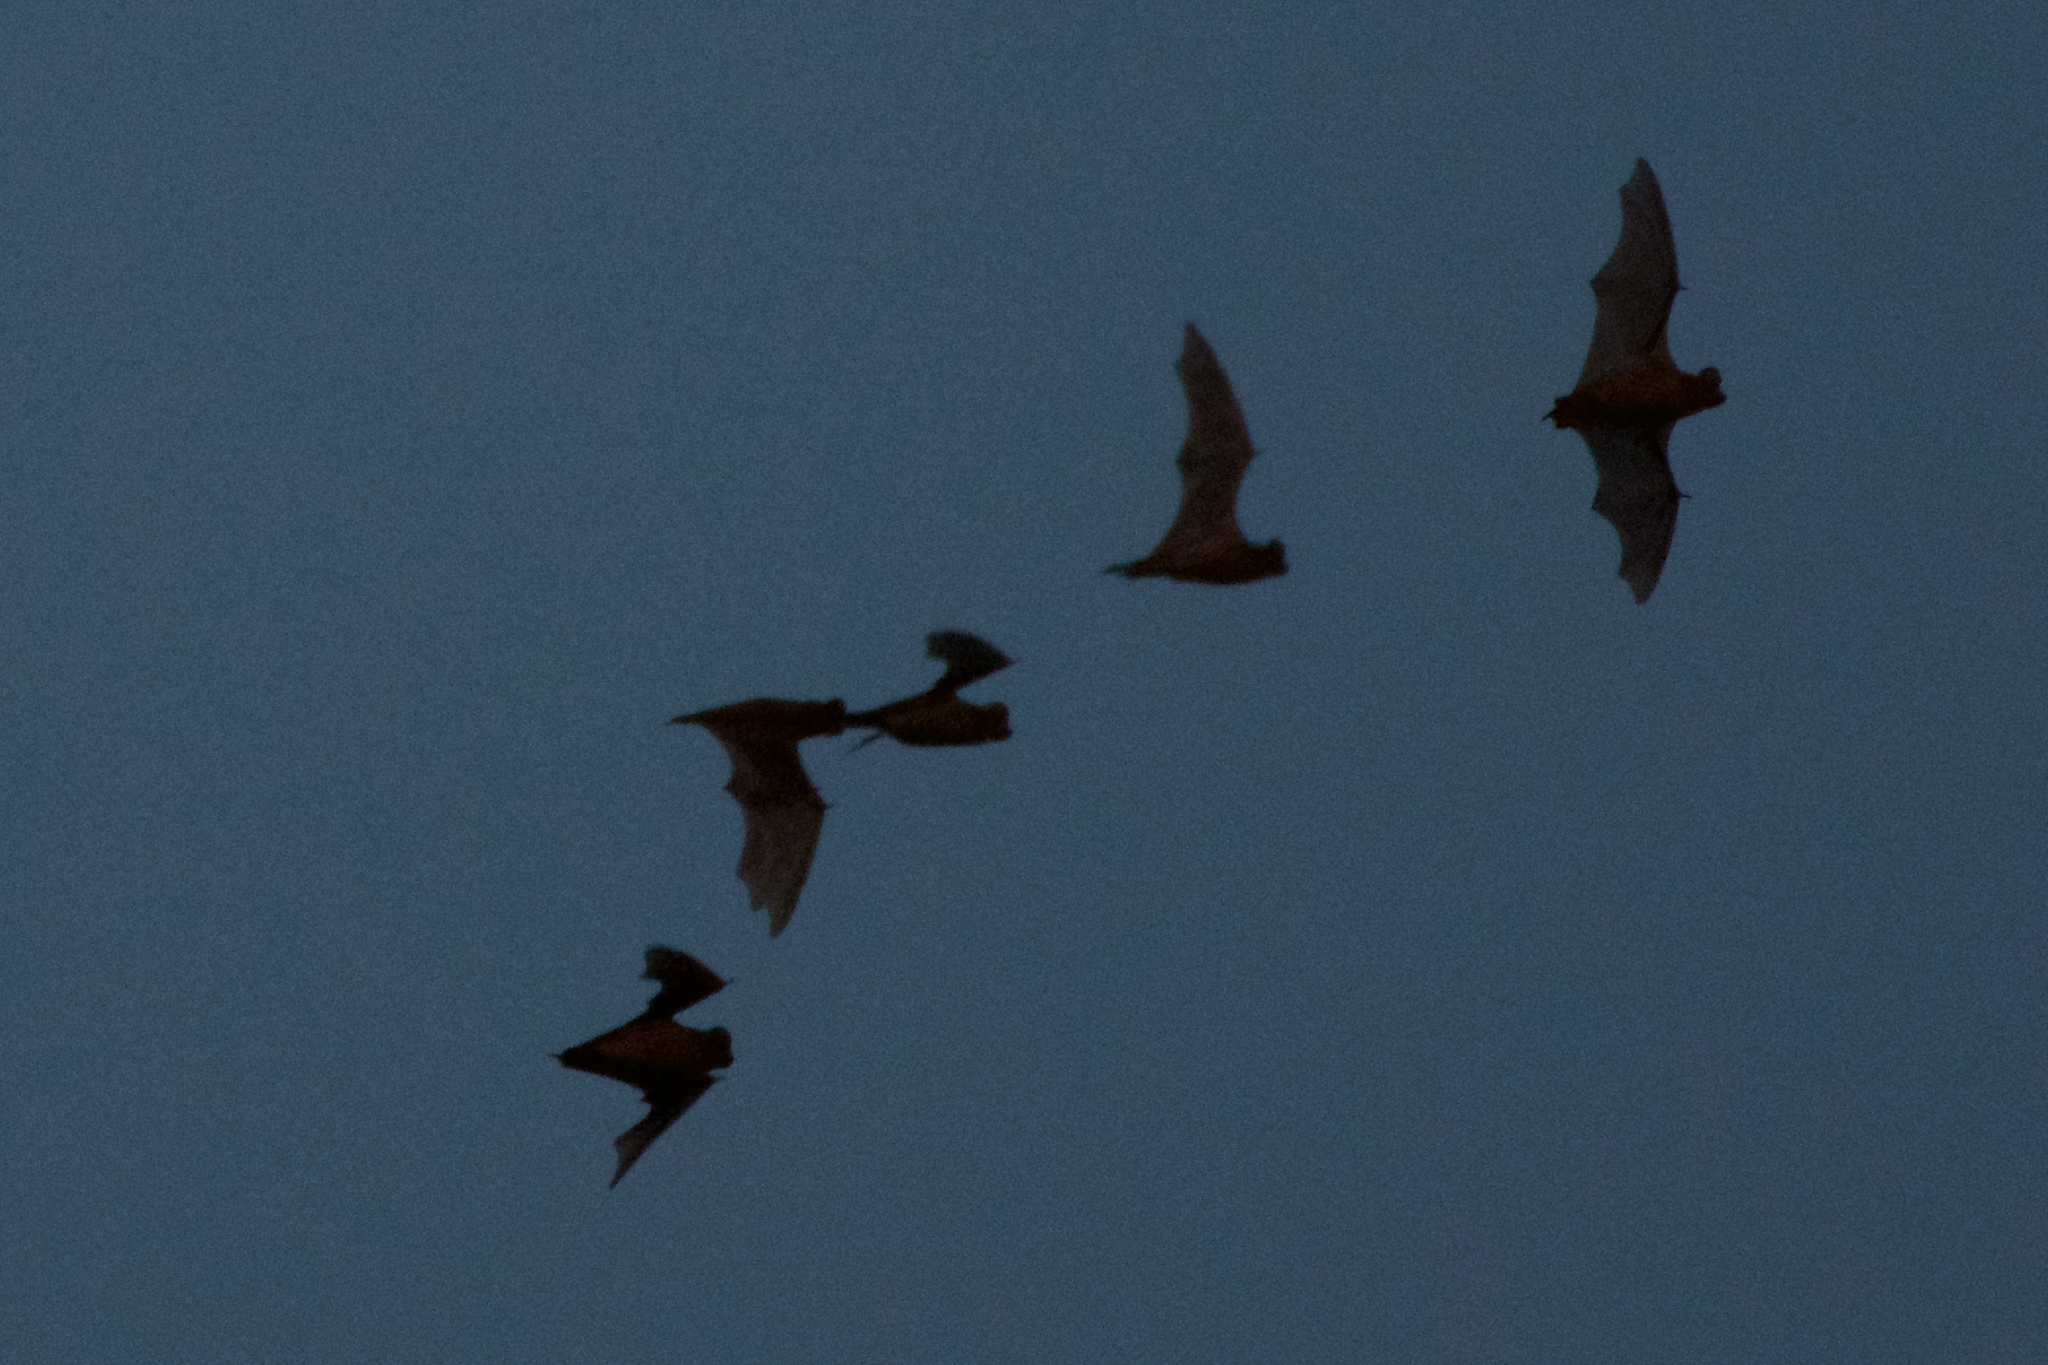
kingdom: Animalia
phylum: Chordata
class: Mammalia
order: Chiroptera
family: Molossidae
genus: Tadarida
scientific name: Tadarida brasiliensis
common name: Mexican free-tailed bat
